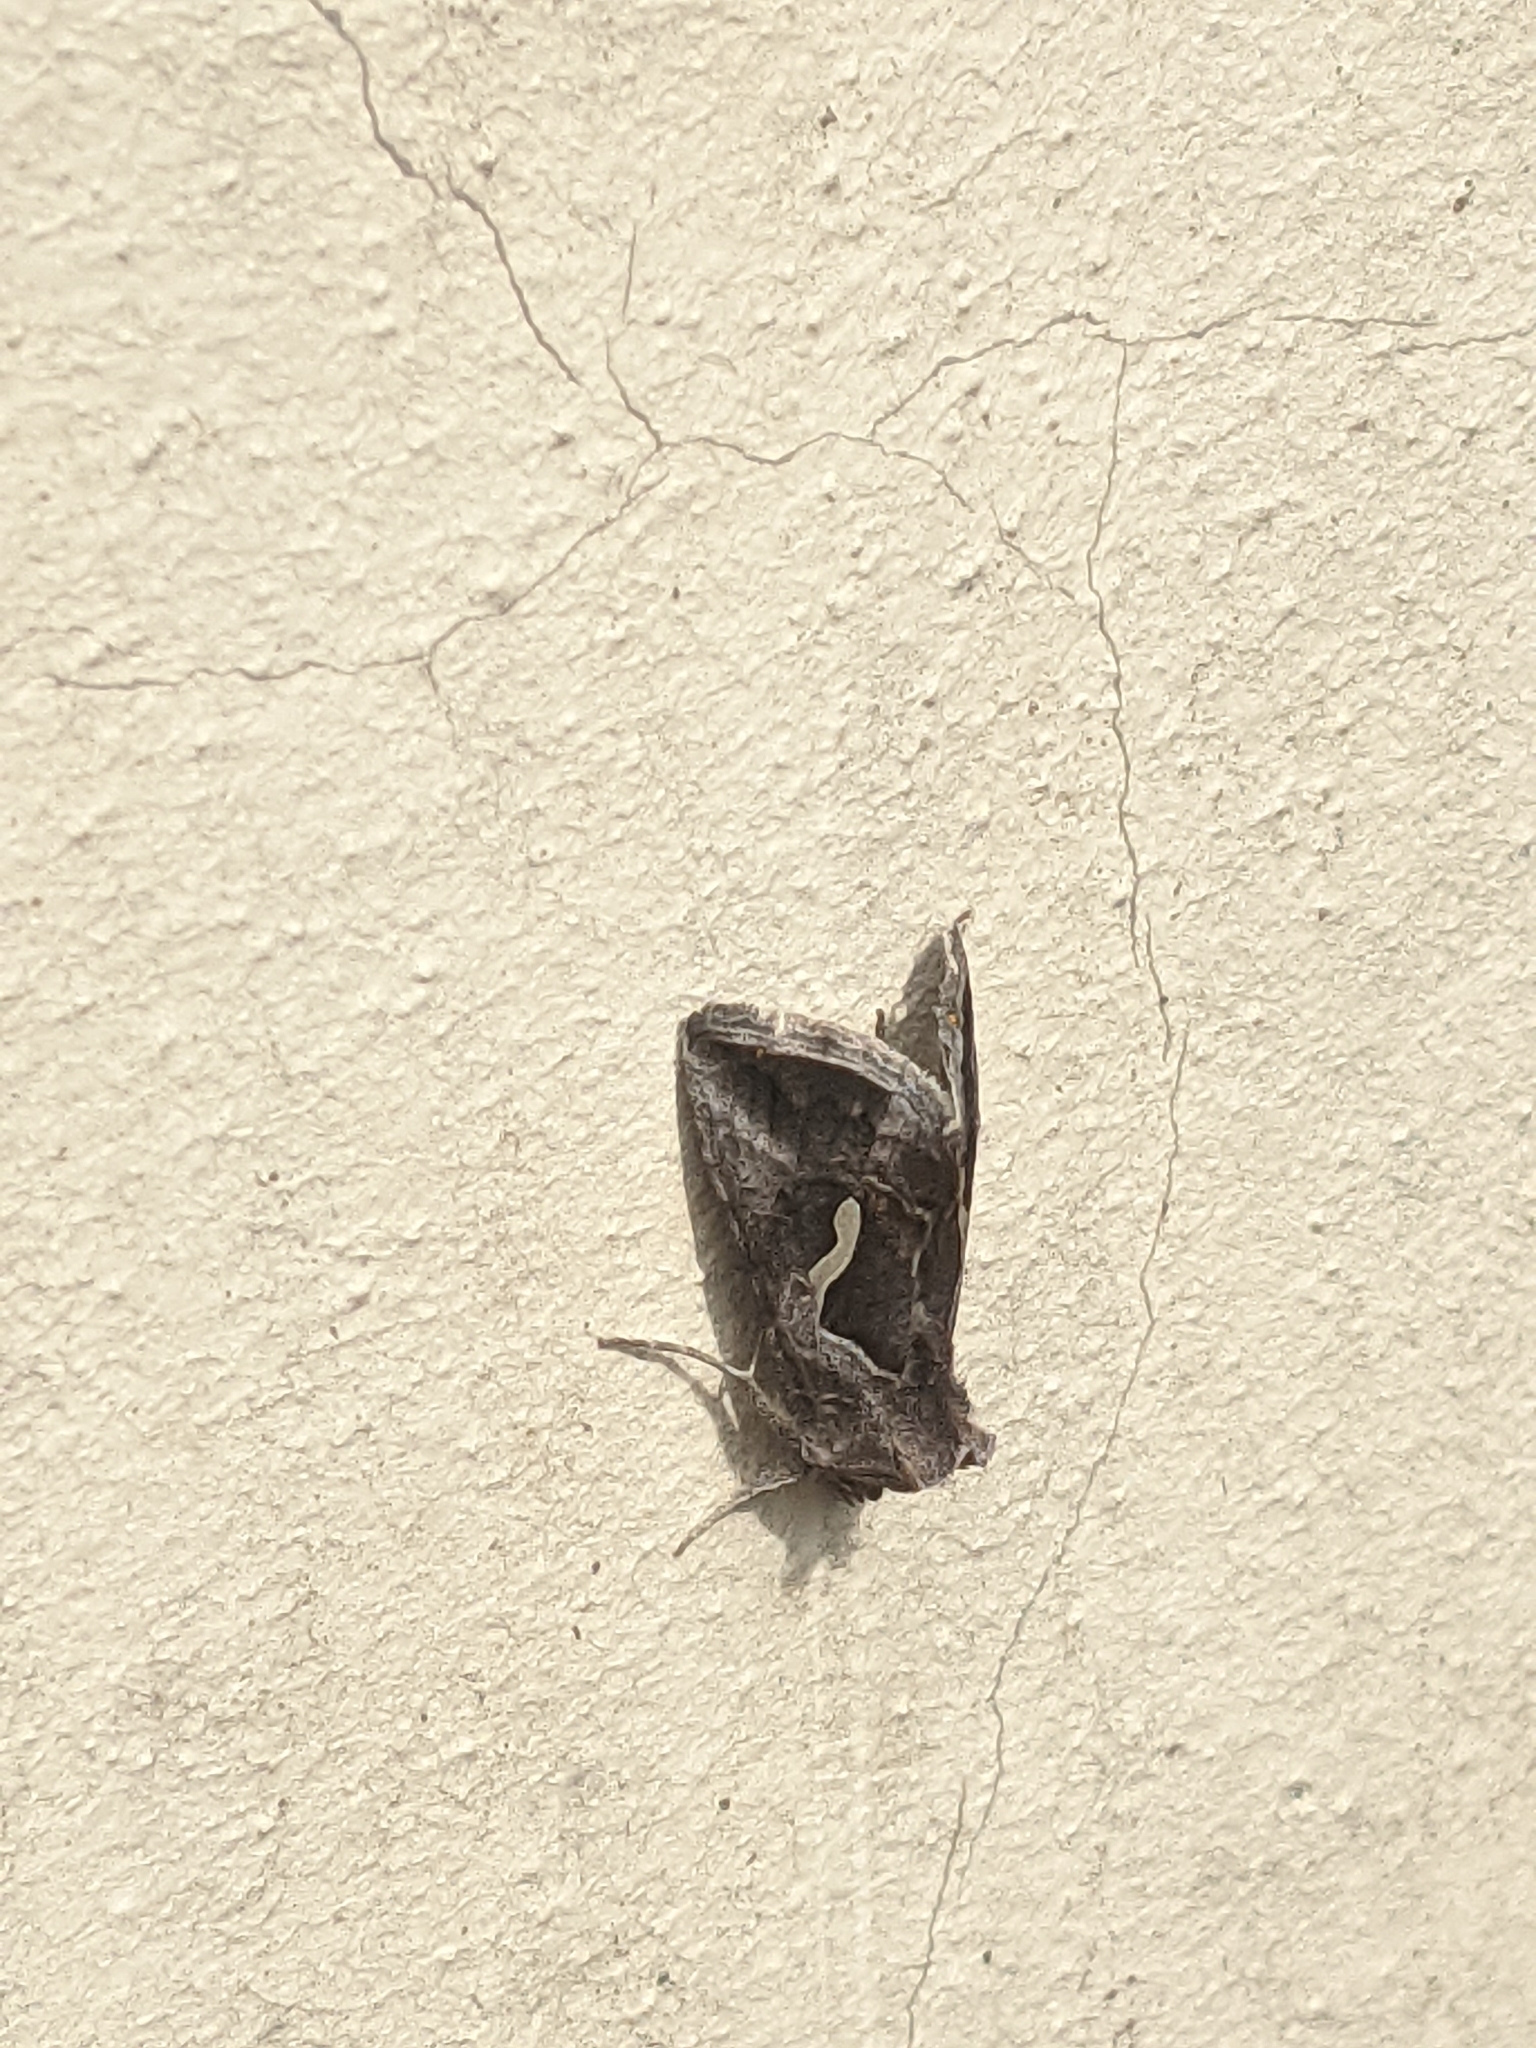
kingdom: Animalia
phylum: Arthropoda
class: Insecta
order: Lepidoptera
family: Noctuidae
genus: Macdunnoughia
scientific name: Macdunnoughia confusa
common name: Dewick's plusia
